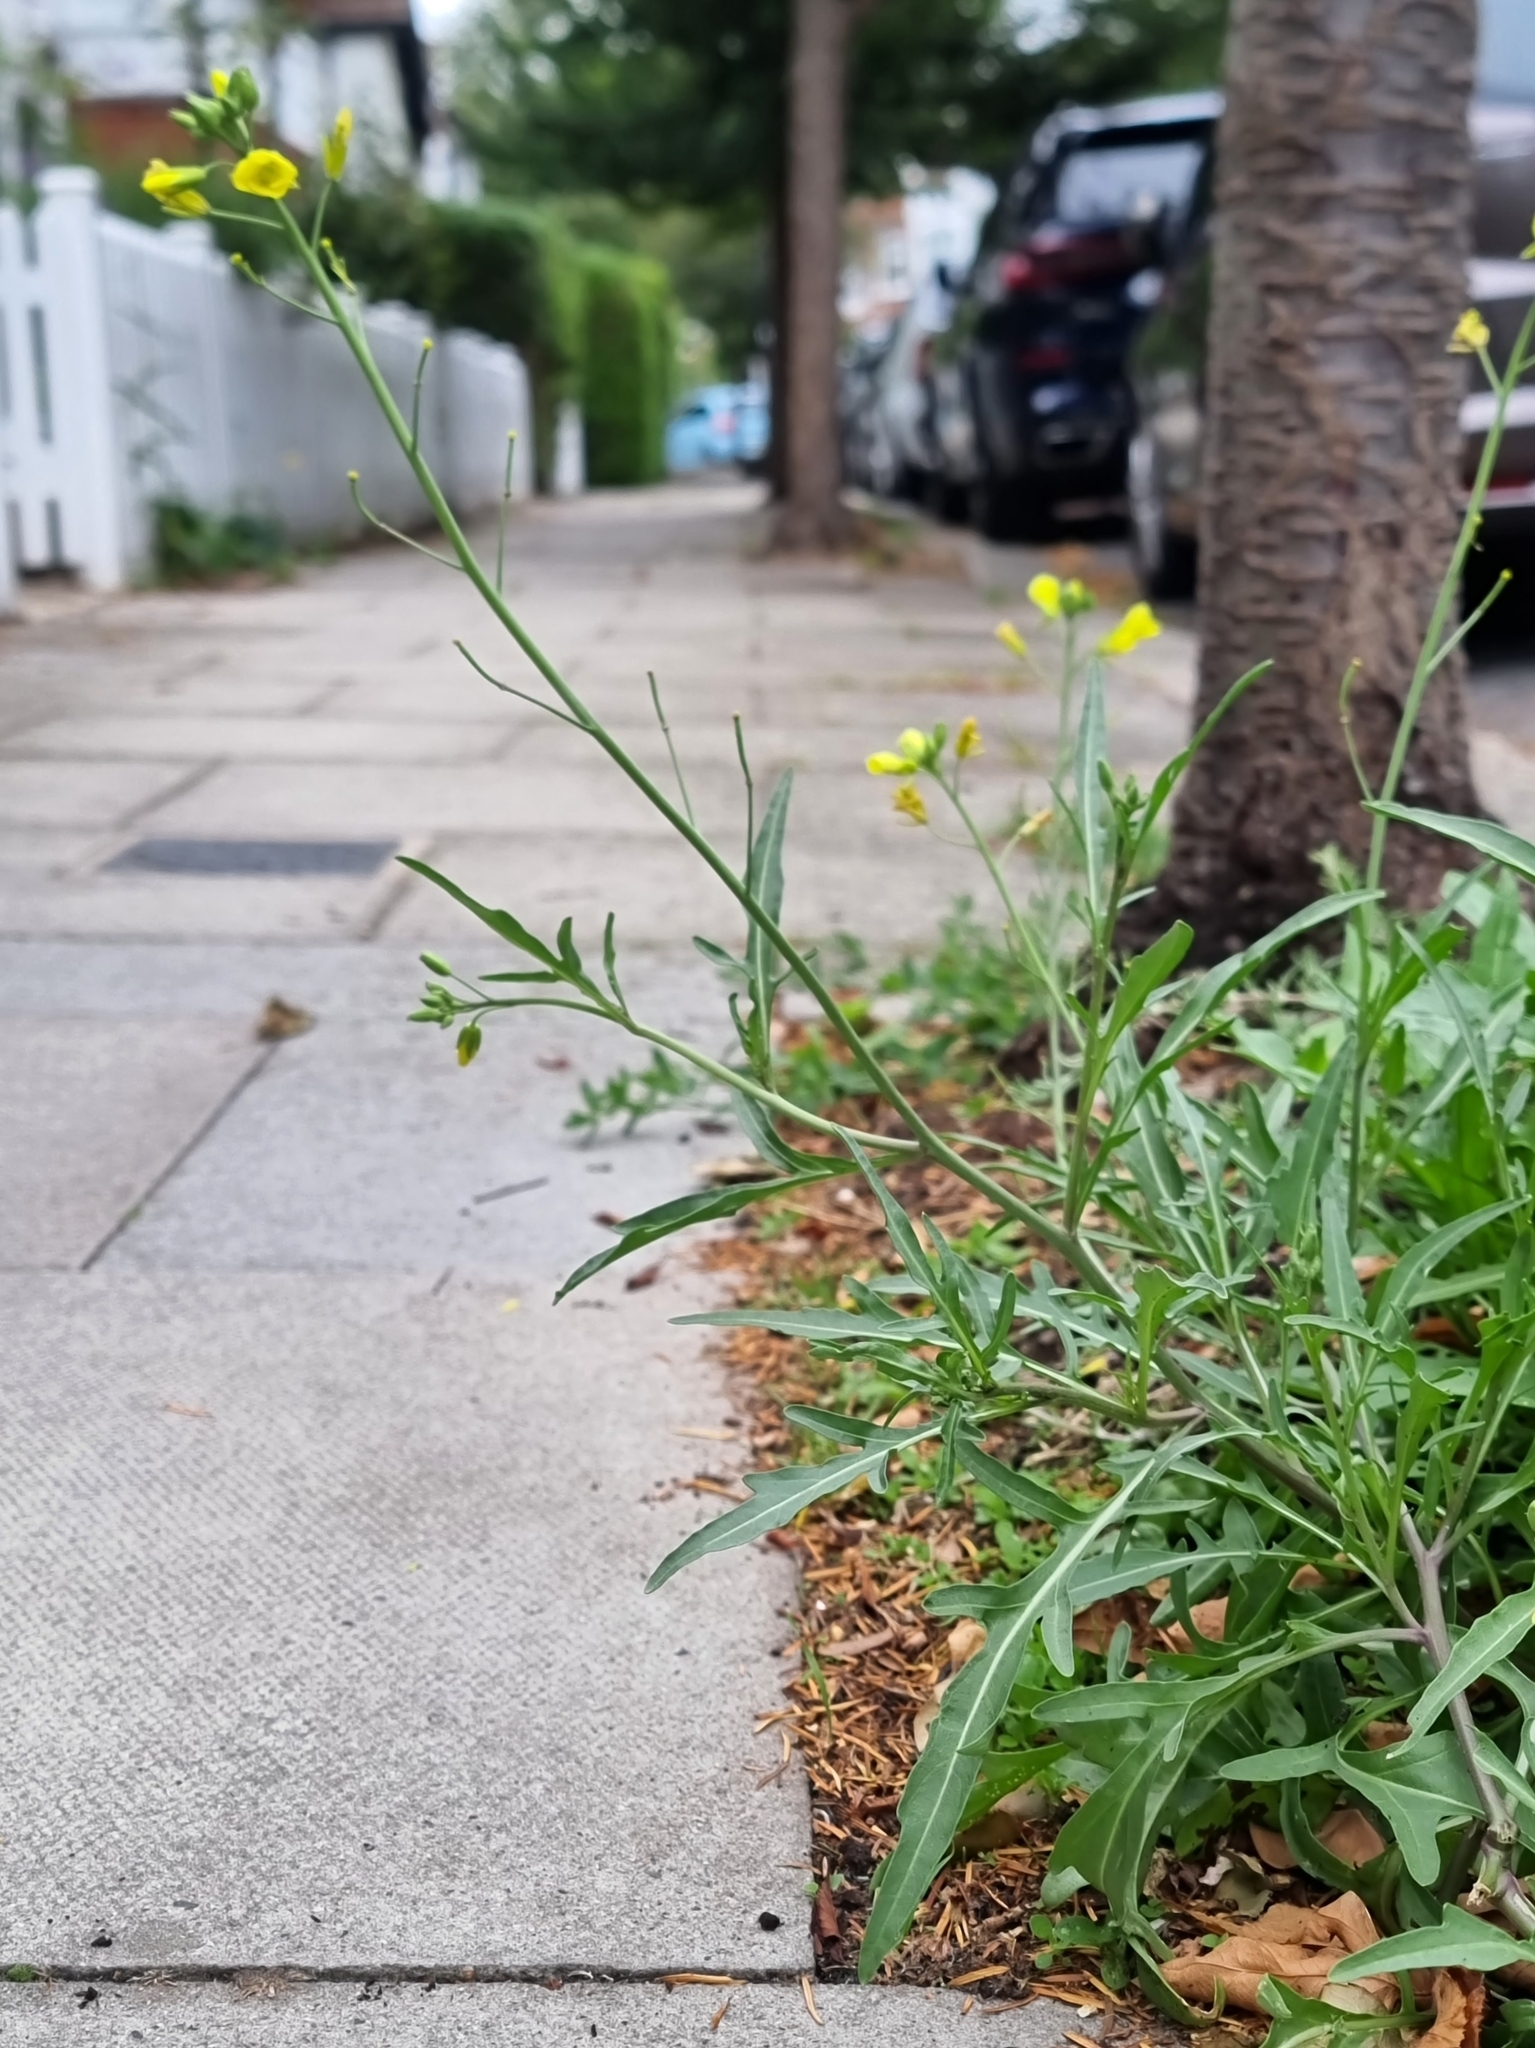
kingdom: Plantae
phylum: Tracheophyta
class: Magnoliopsida
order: Brassicales
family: Brassicaceae
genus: Diplotaxis
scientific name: Diplotaxis tenuifolia
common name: Perennial wall-rocket
